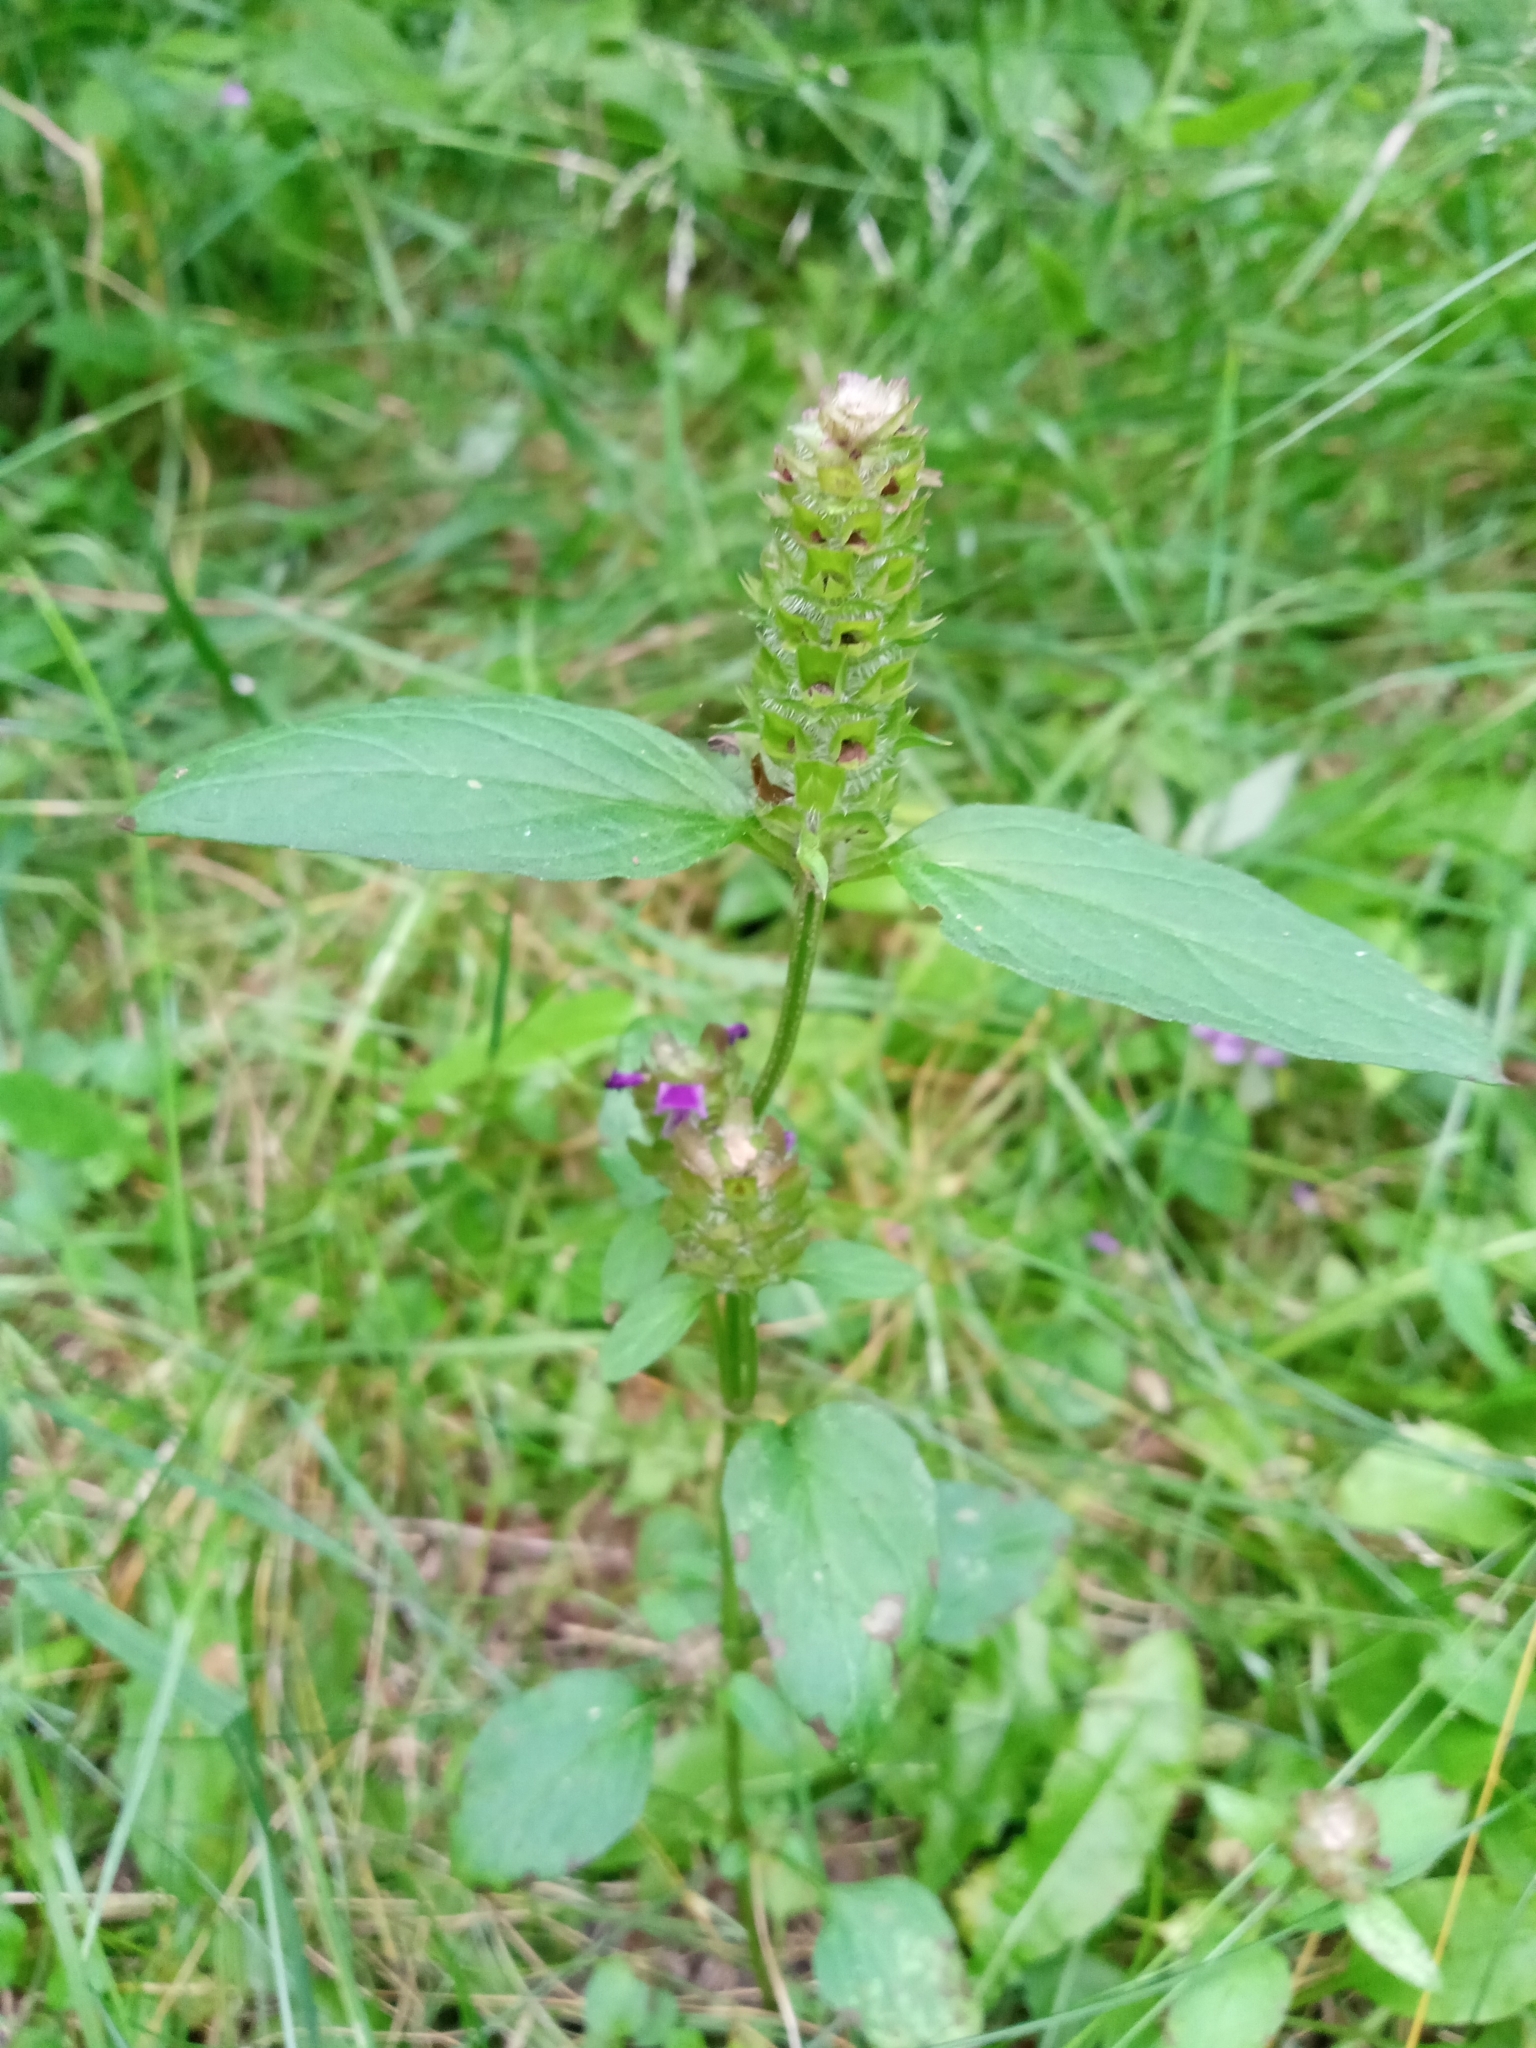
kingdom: Plantae
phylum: Tracheophyta
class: Magnoliopsida
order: Lamiales
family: Lamiaceae
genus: Prunella
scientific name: Prunella vulgaris
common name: Heal-all
